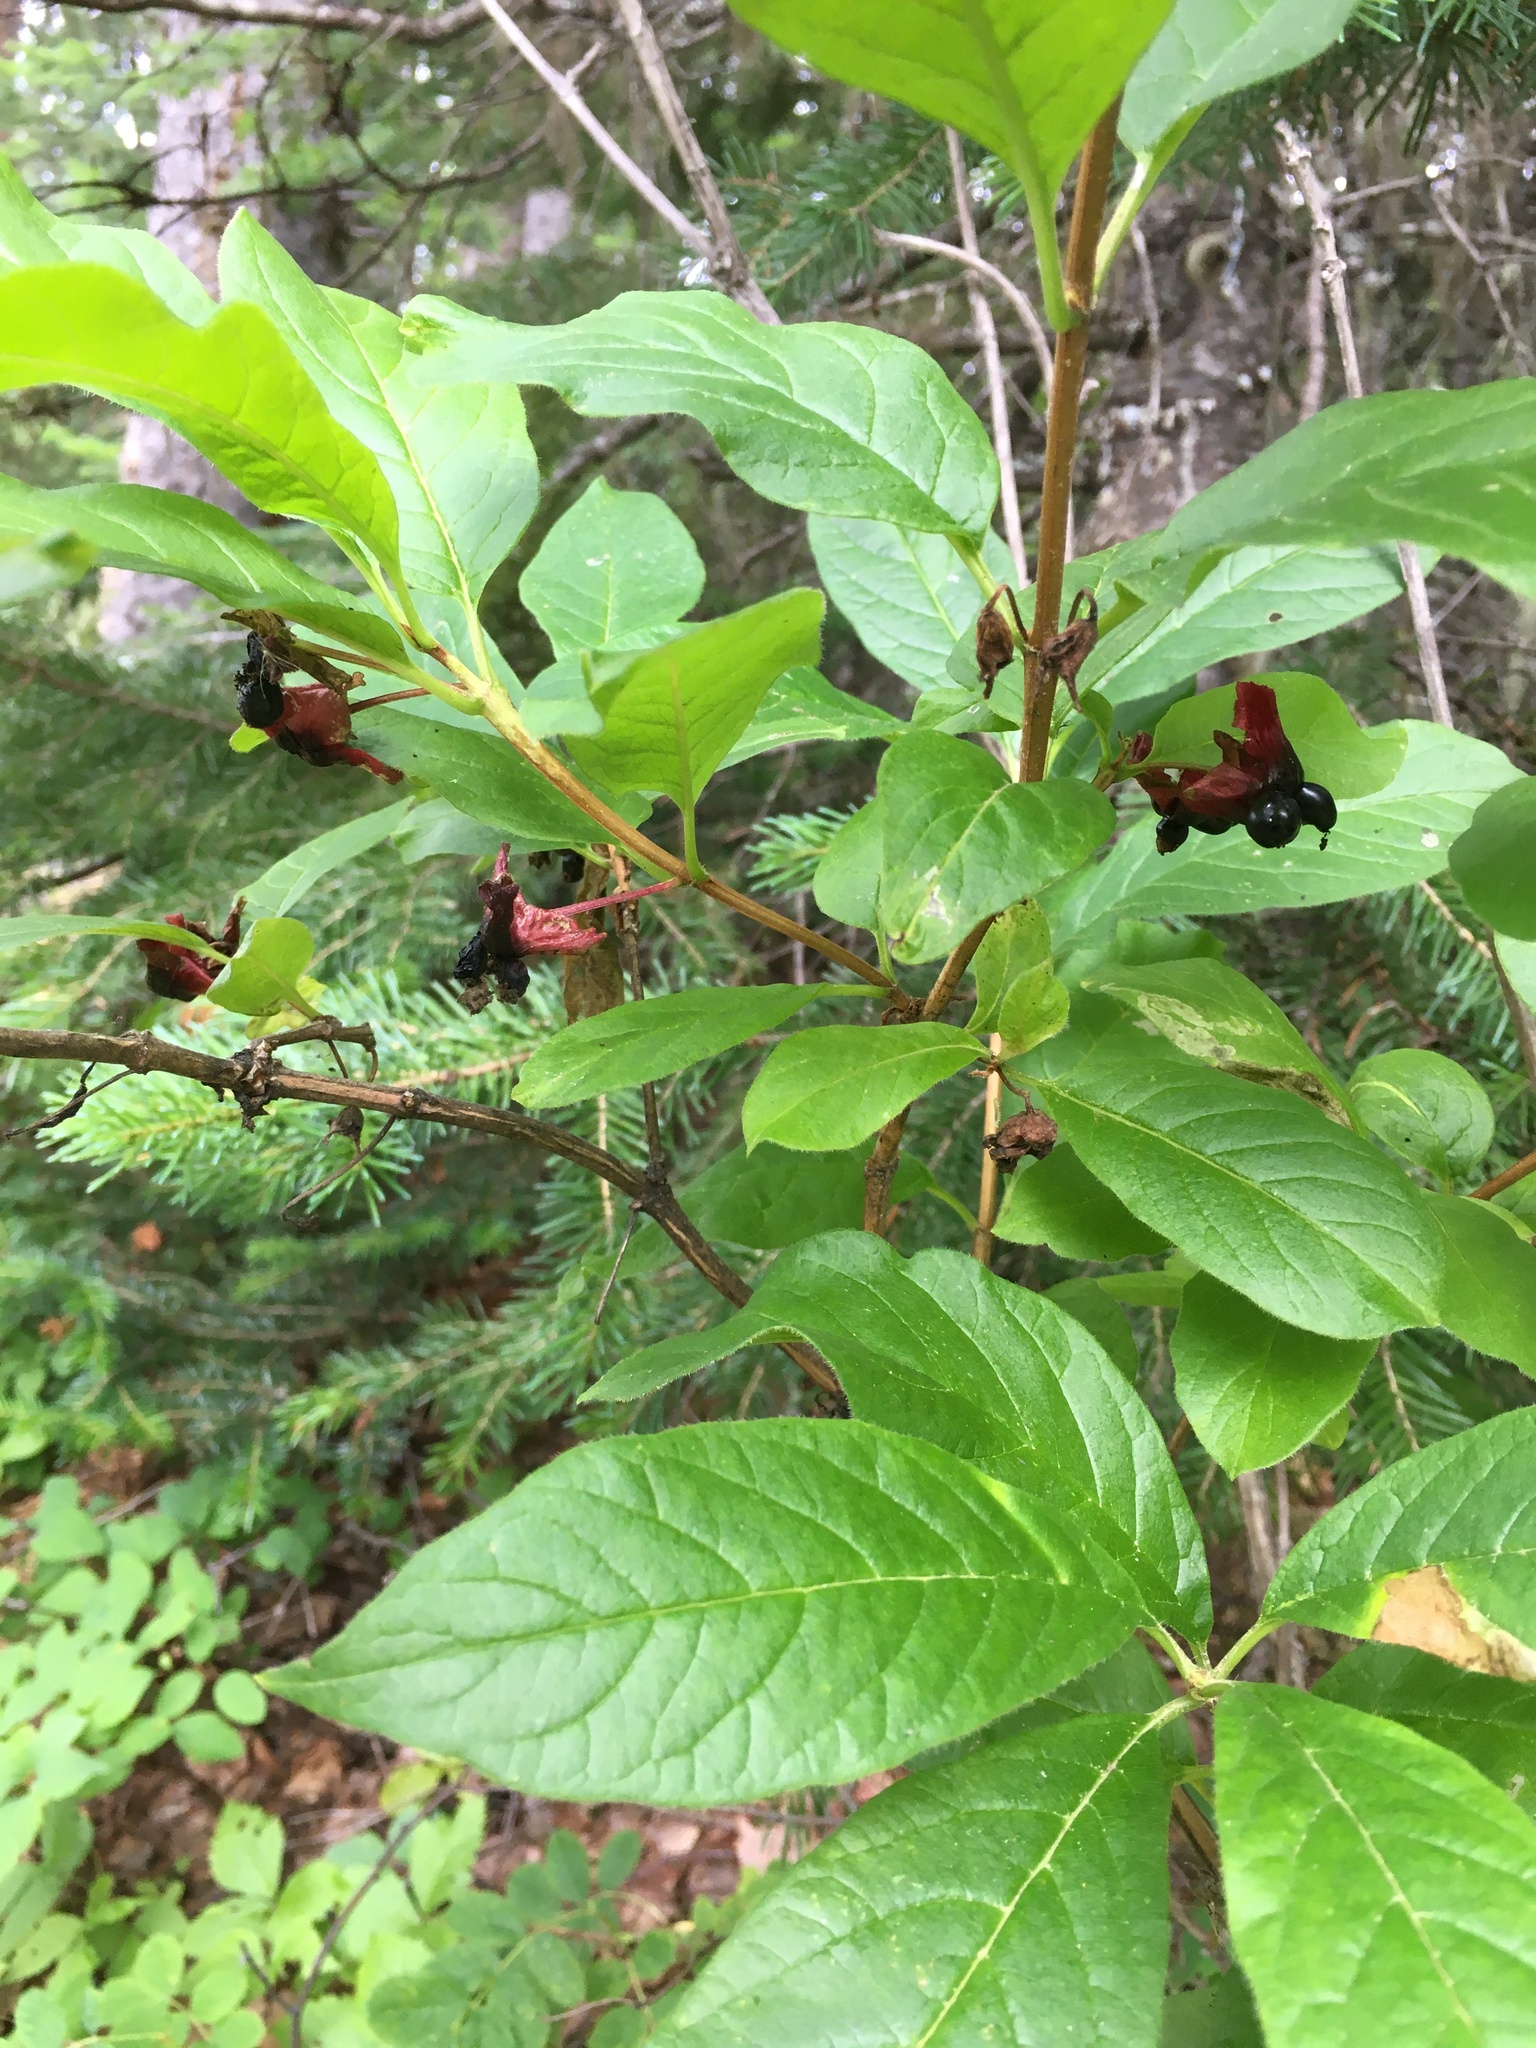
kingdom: Plantae
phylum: Tracheophyta
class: Magnoliopsida
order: Dipsacales
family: Caprifoliaceae
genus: Lonicera
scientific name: Lonicera involucrata
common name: Californian honeysuckle
